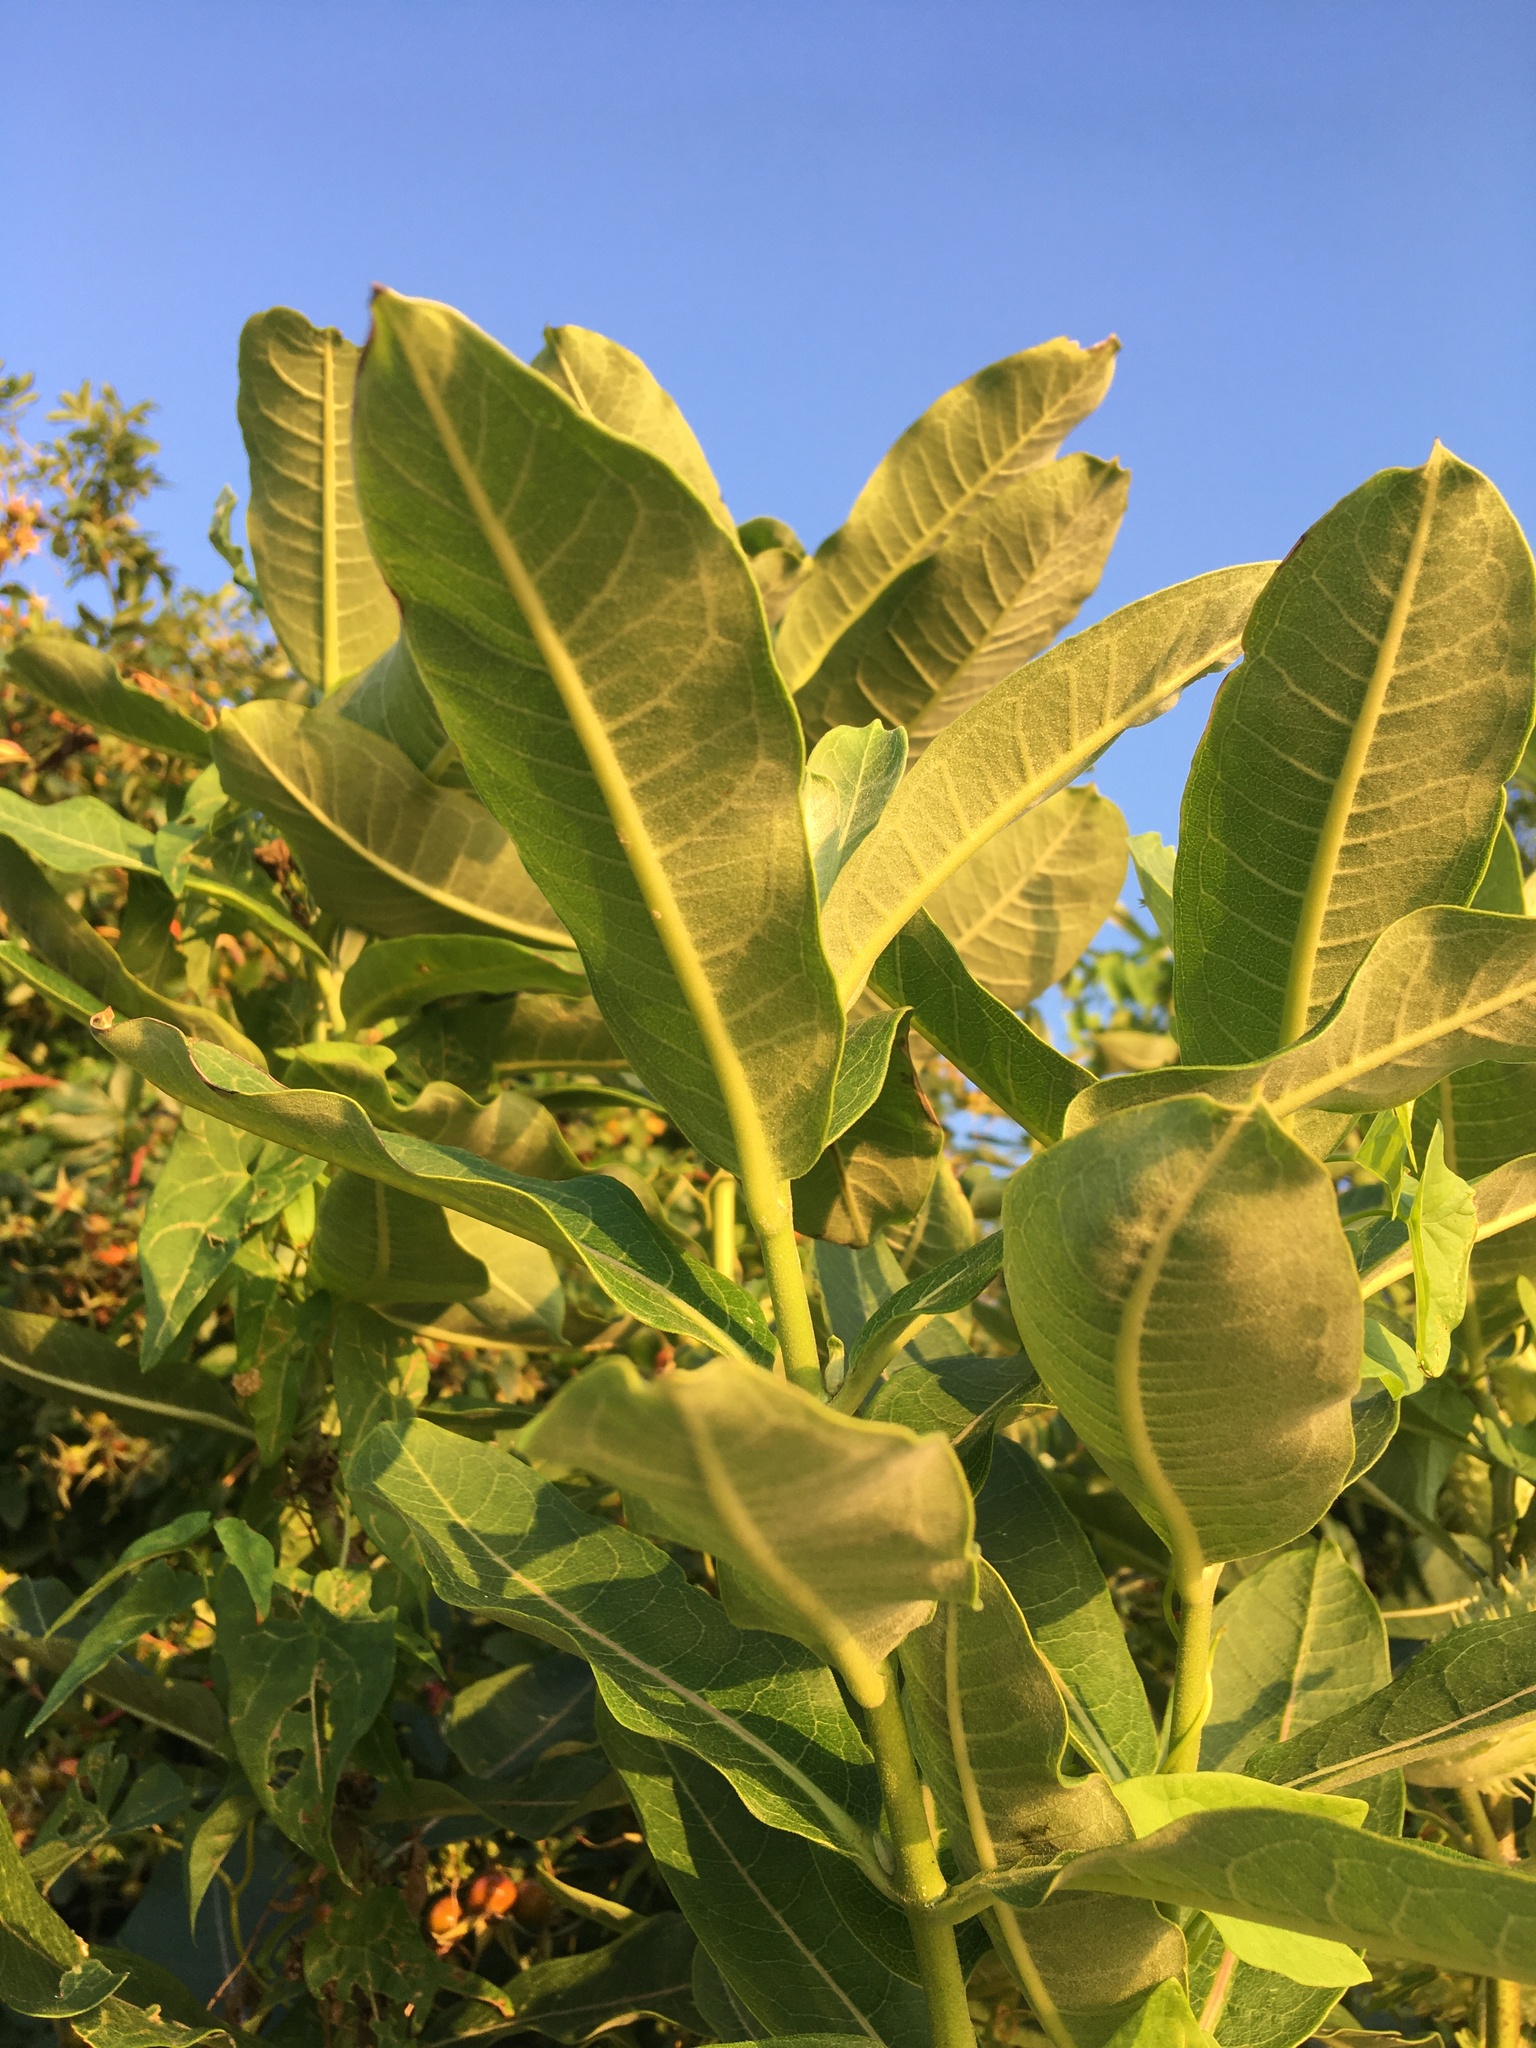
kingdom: Plantae
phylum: Tracheophyta
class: Magnoliopsida
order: Gentianales
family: Apocynaceae
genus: Asclepias
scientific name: Asclepias syriaca
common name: Common milkweed
